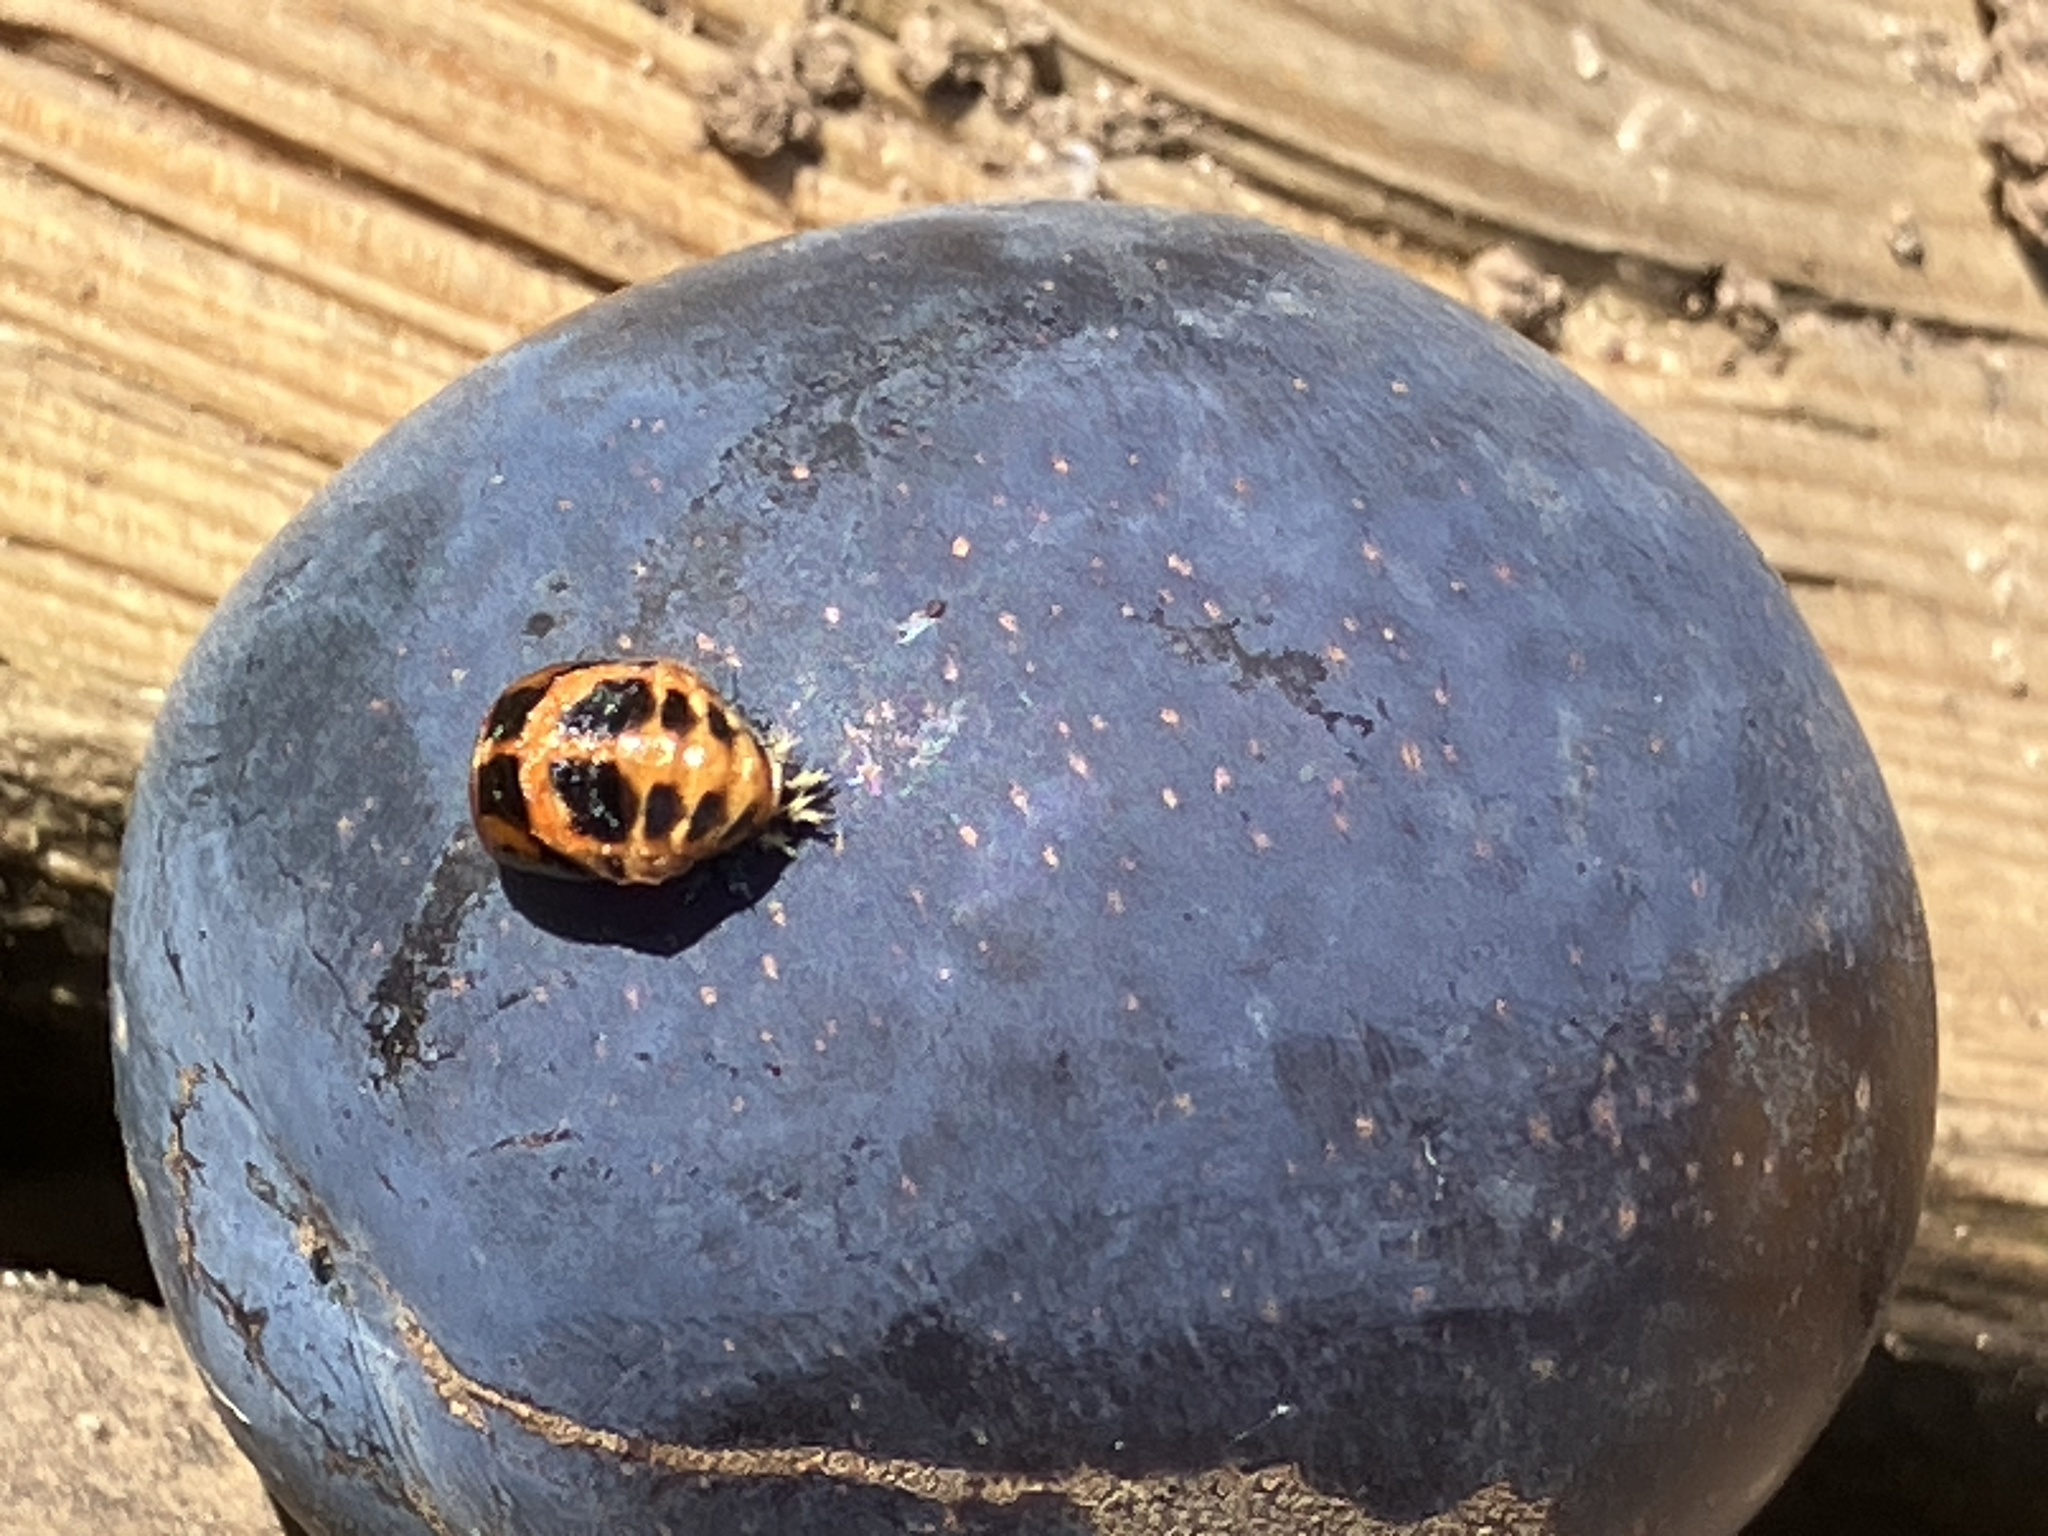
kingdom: Animalia
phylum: Arthropoda
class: Insecta
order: Coleoptera
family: Coccinellidae
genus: Harmonia
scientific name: Harmonia axyridis
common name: Harlequin ladybird
